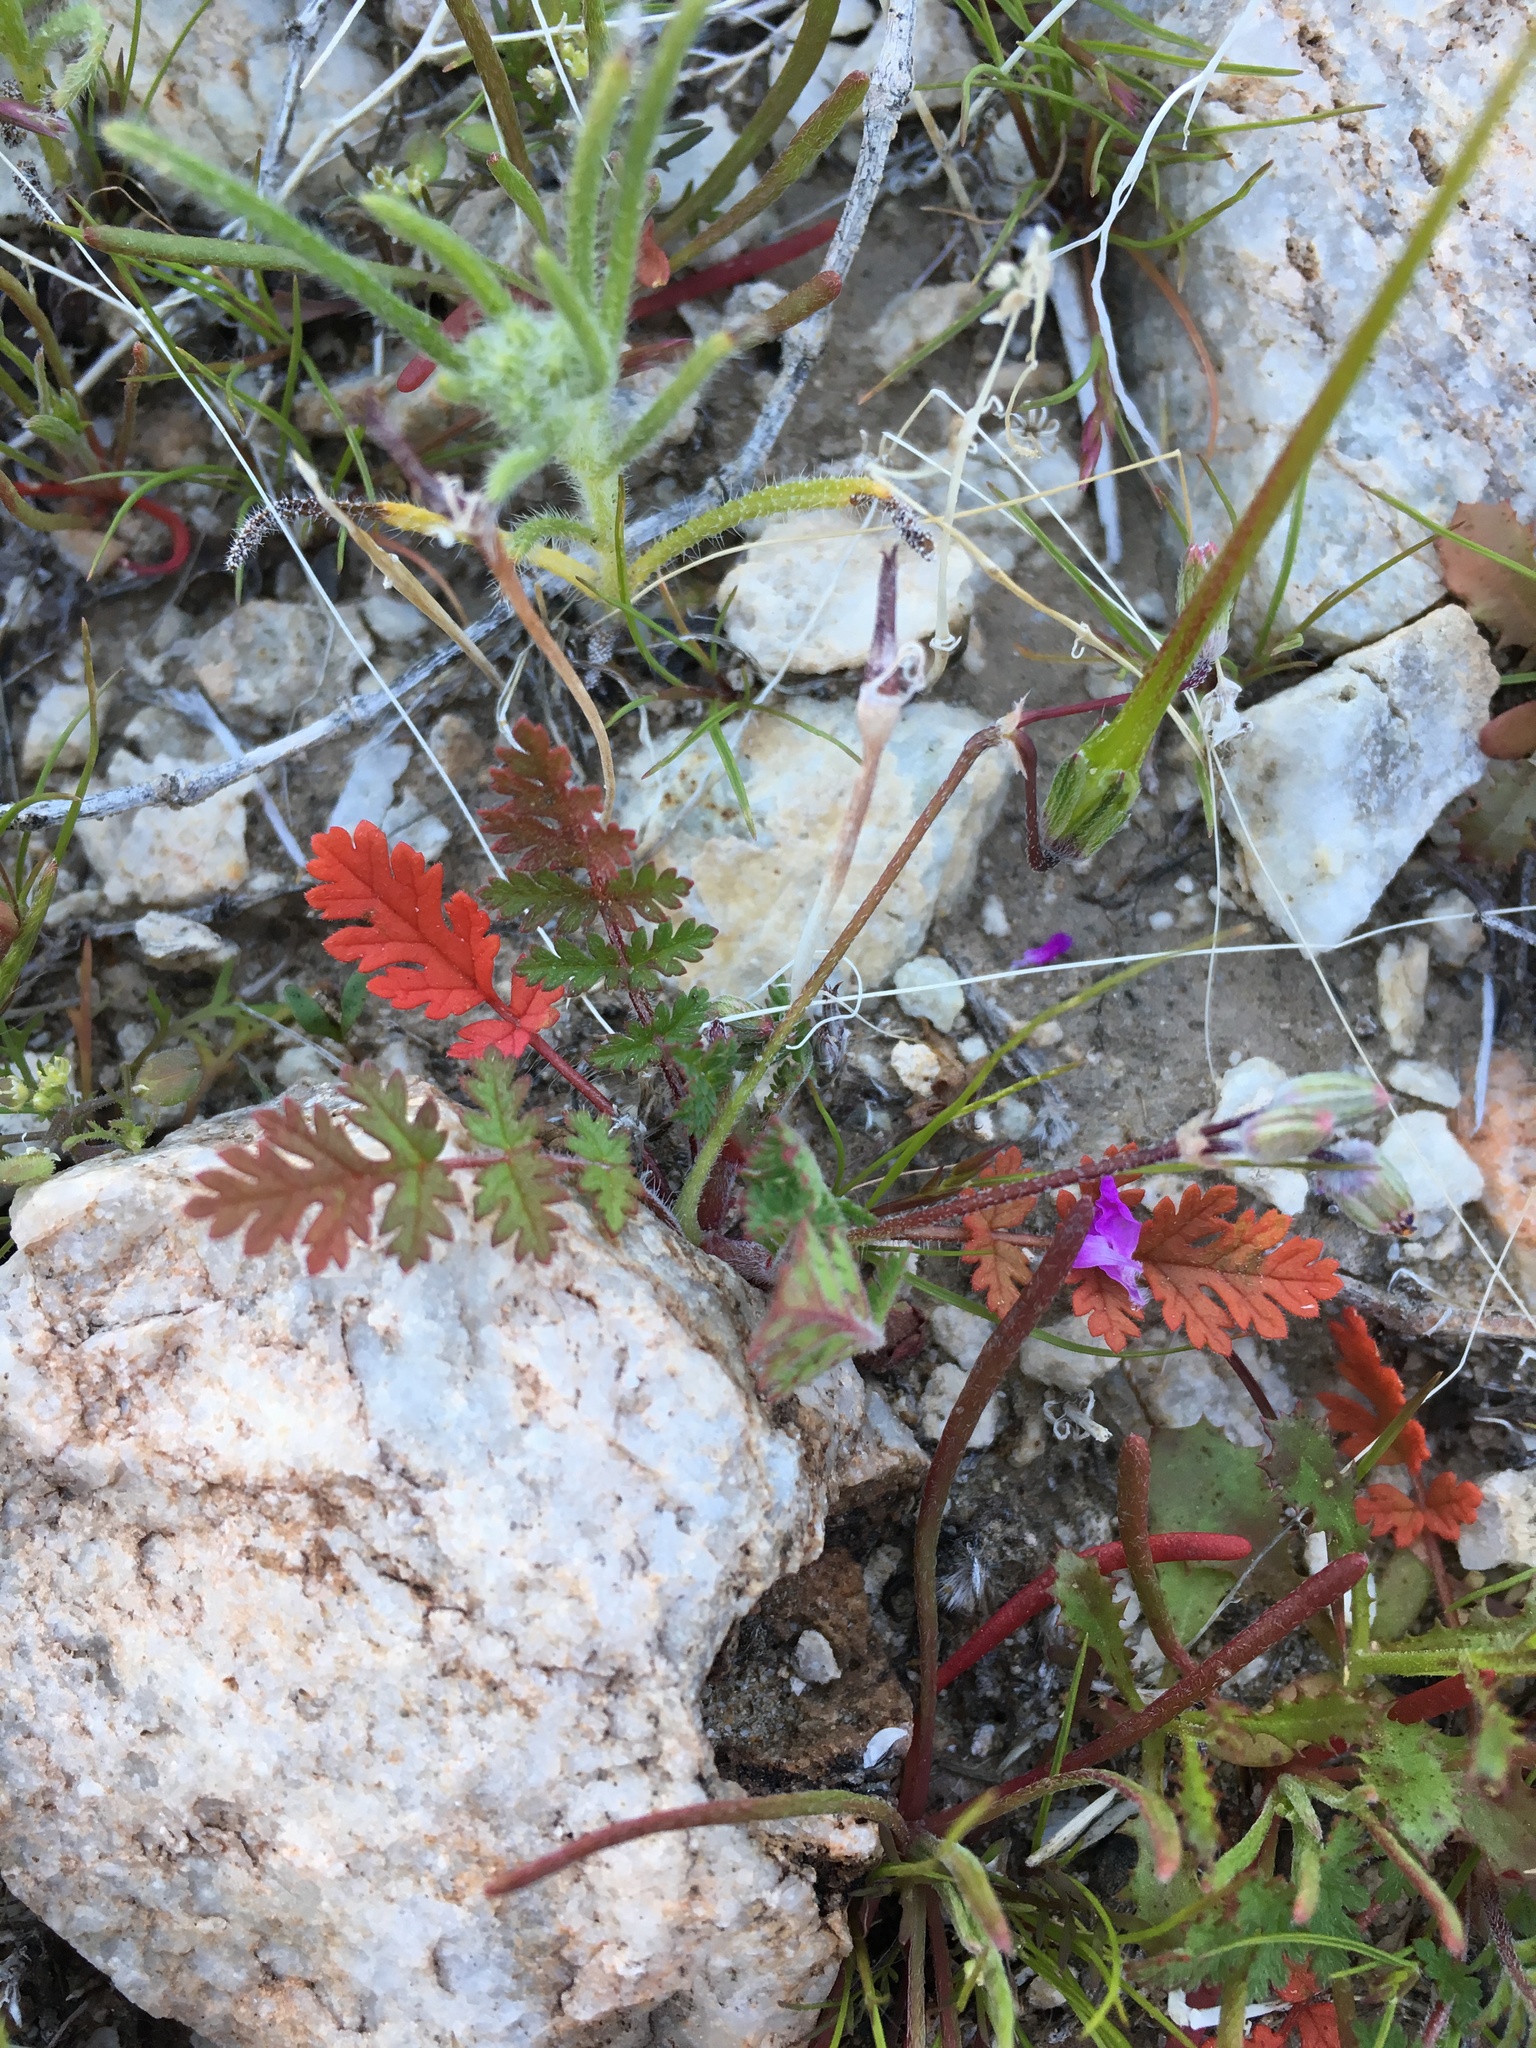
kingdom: Plantae
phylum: Tracheophyta
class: Magnoliopsida
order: Geraniales
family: Geraniaceae
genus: Erodium
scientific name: Erodium cicutarium
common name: Common stork's-bill
